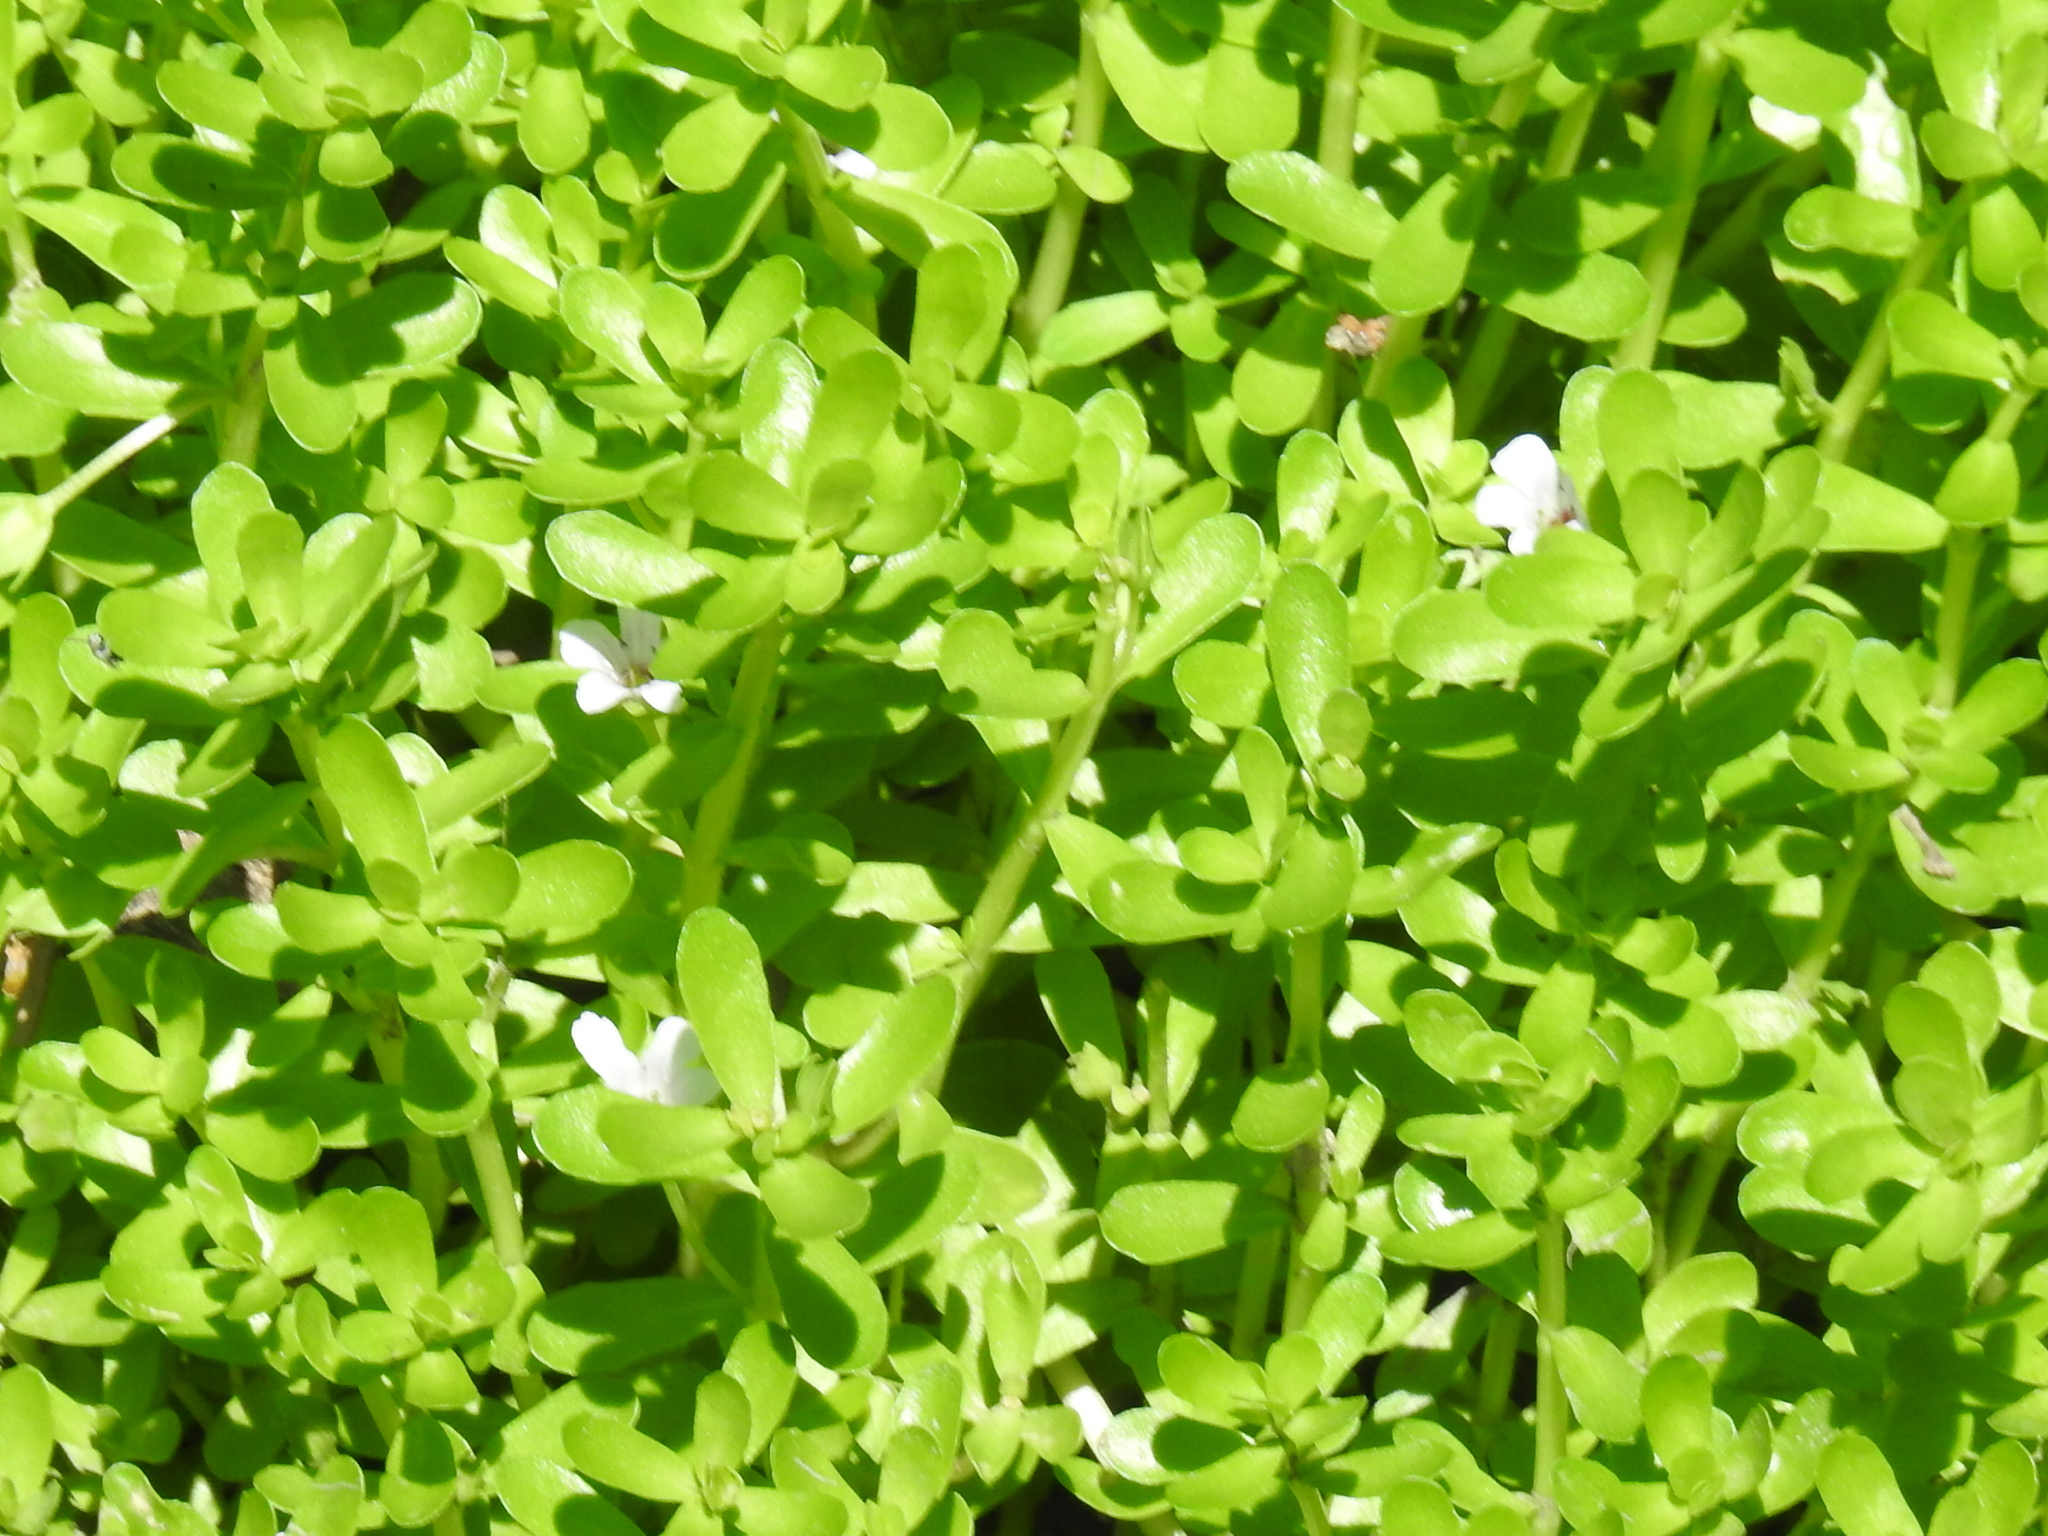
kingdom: Plantae
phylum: Tracheophyta
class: Magnoliopsida
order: Lamiales
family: Plantaginaceae
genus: Bacopa
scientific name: Bacopa monnieri
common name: Indian-pennywort
